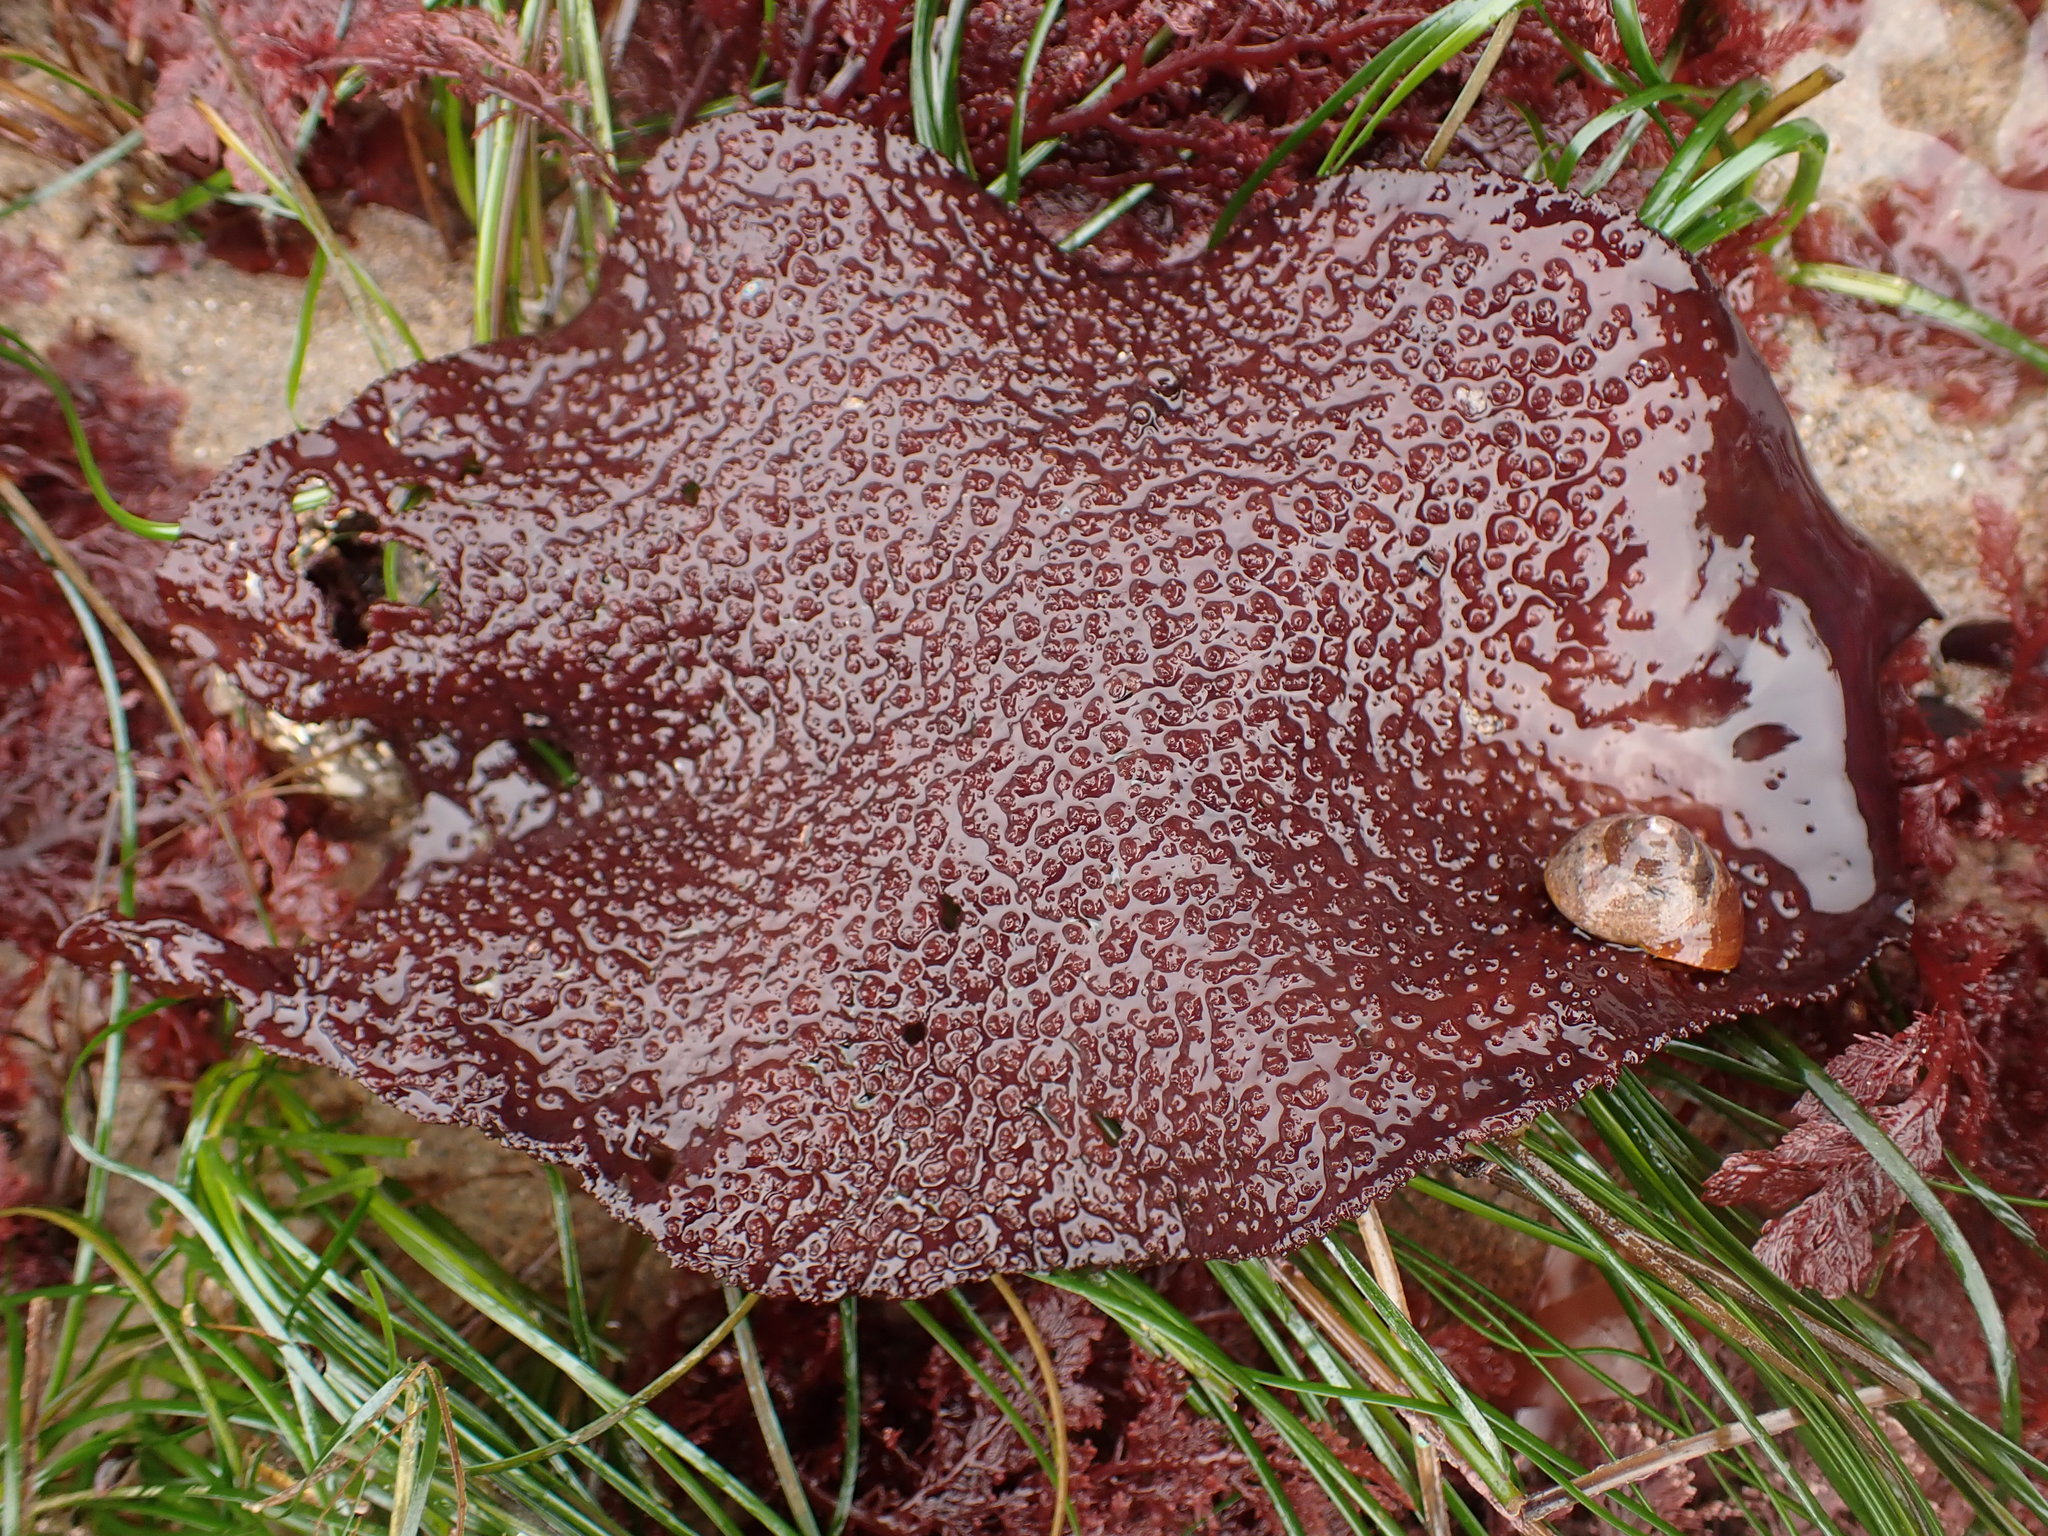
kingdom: Plantae
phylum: Rhodophyta
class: Florideophyceae
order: Gigartinales
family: Gigartinaceae
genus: Chondracanthus
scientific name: Chondracanthus exasperatus
